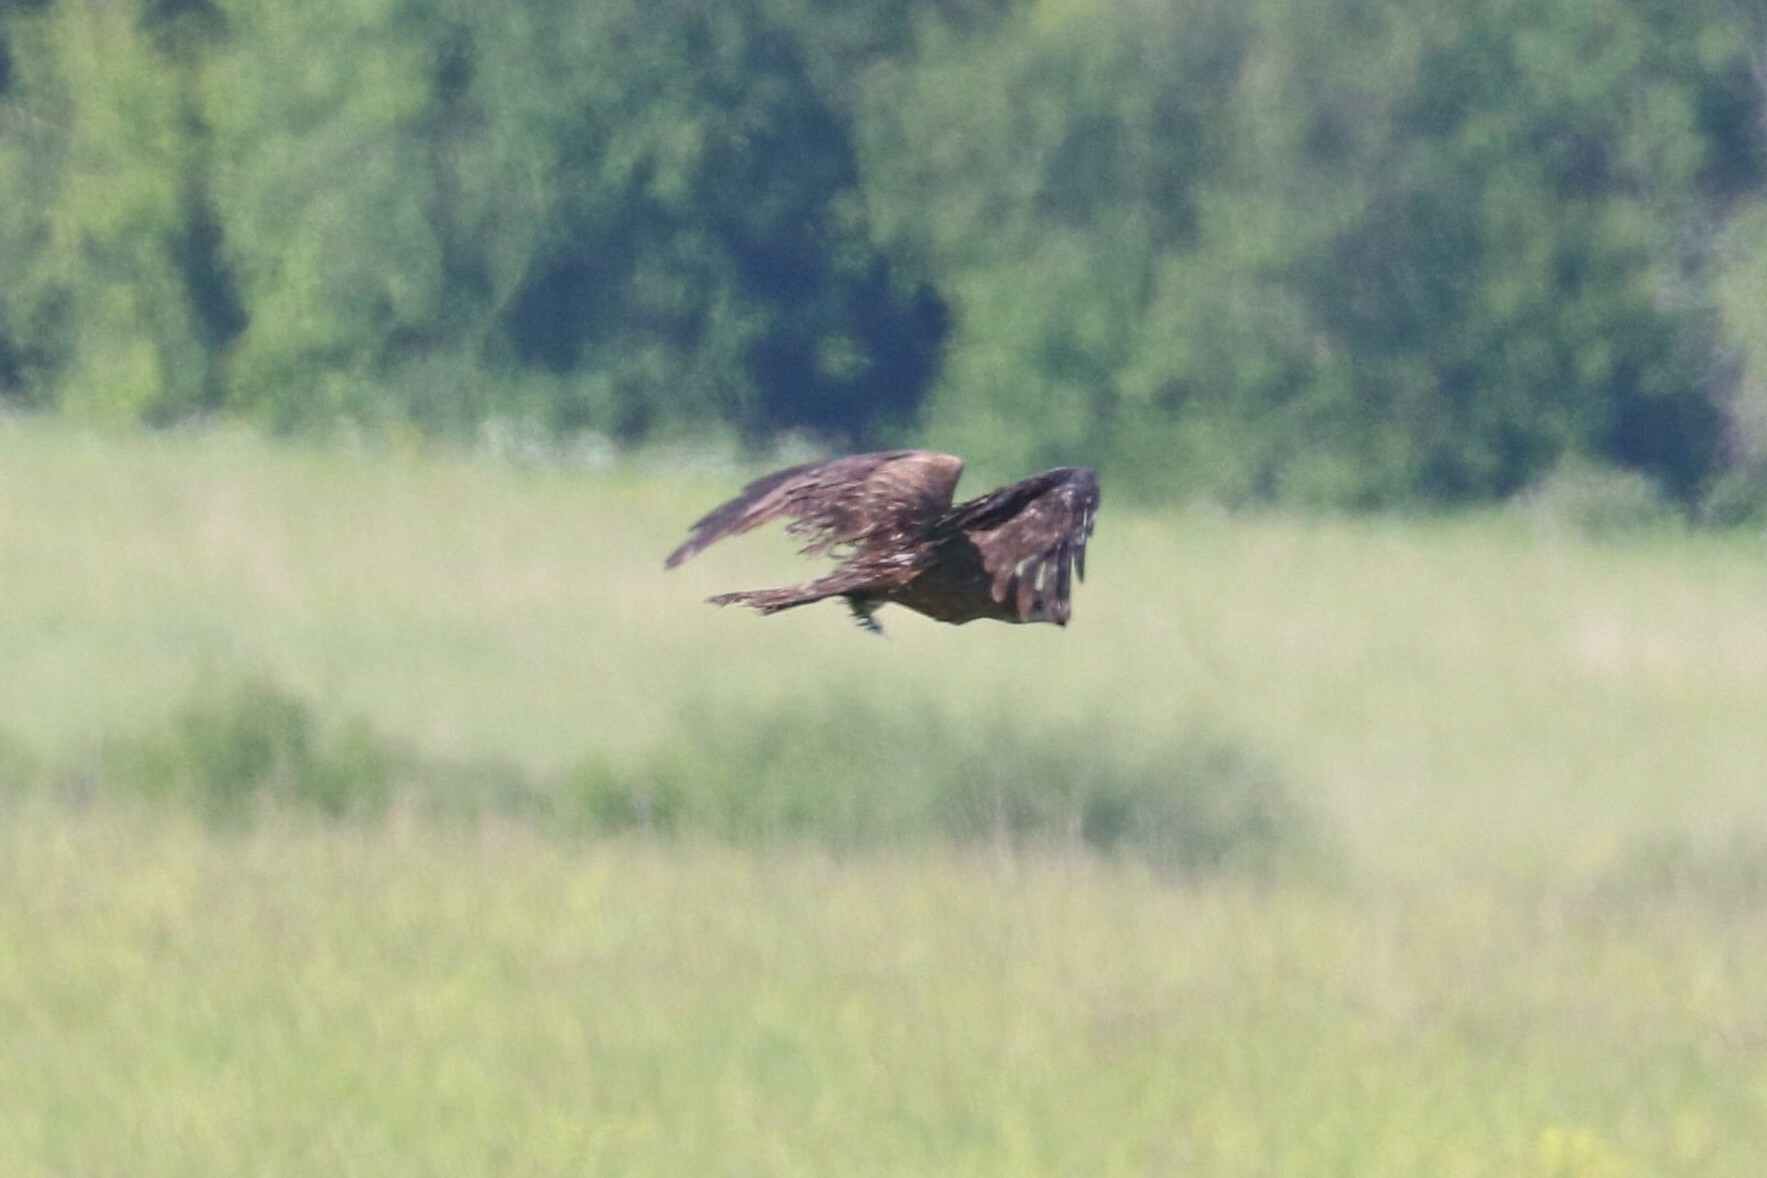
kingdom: Animalia
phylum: Chordata
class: Aves
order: Accipitriformes
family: Accipitridae
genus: Milvus
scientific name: Milvus migrans
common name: Black kite
